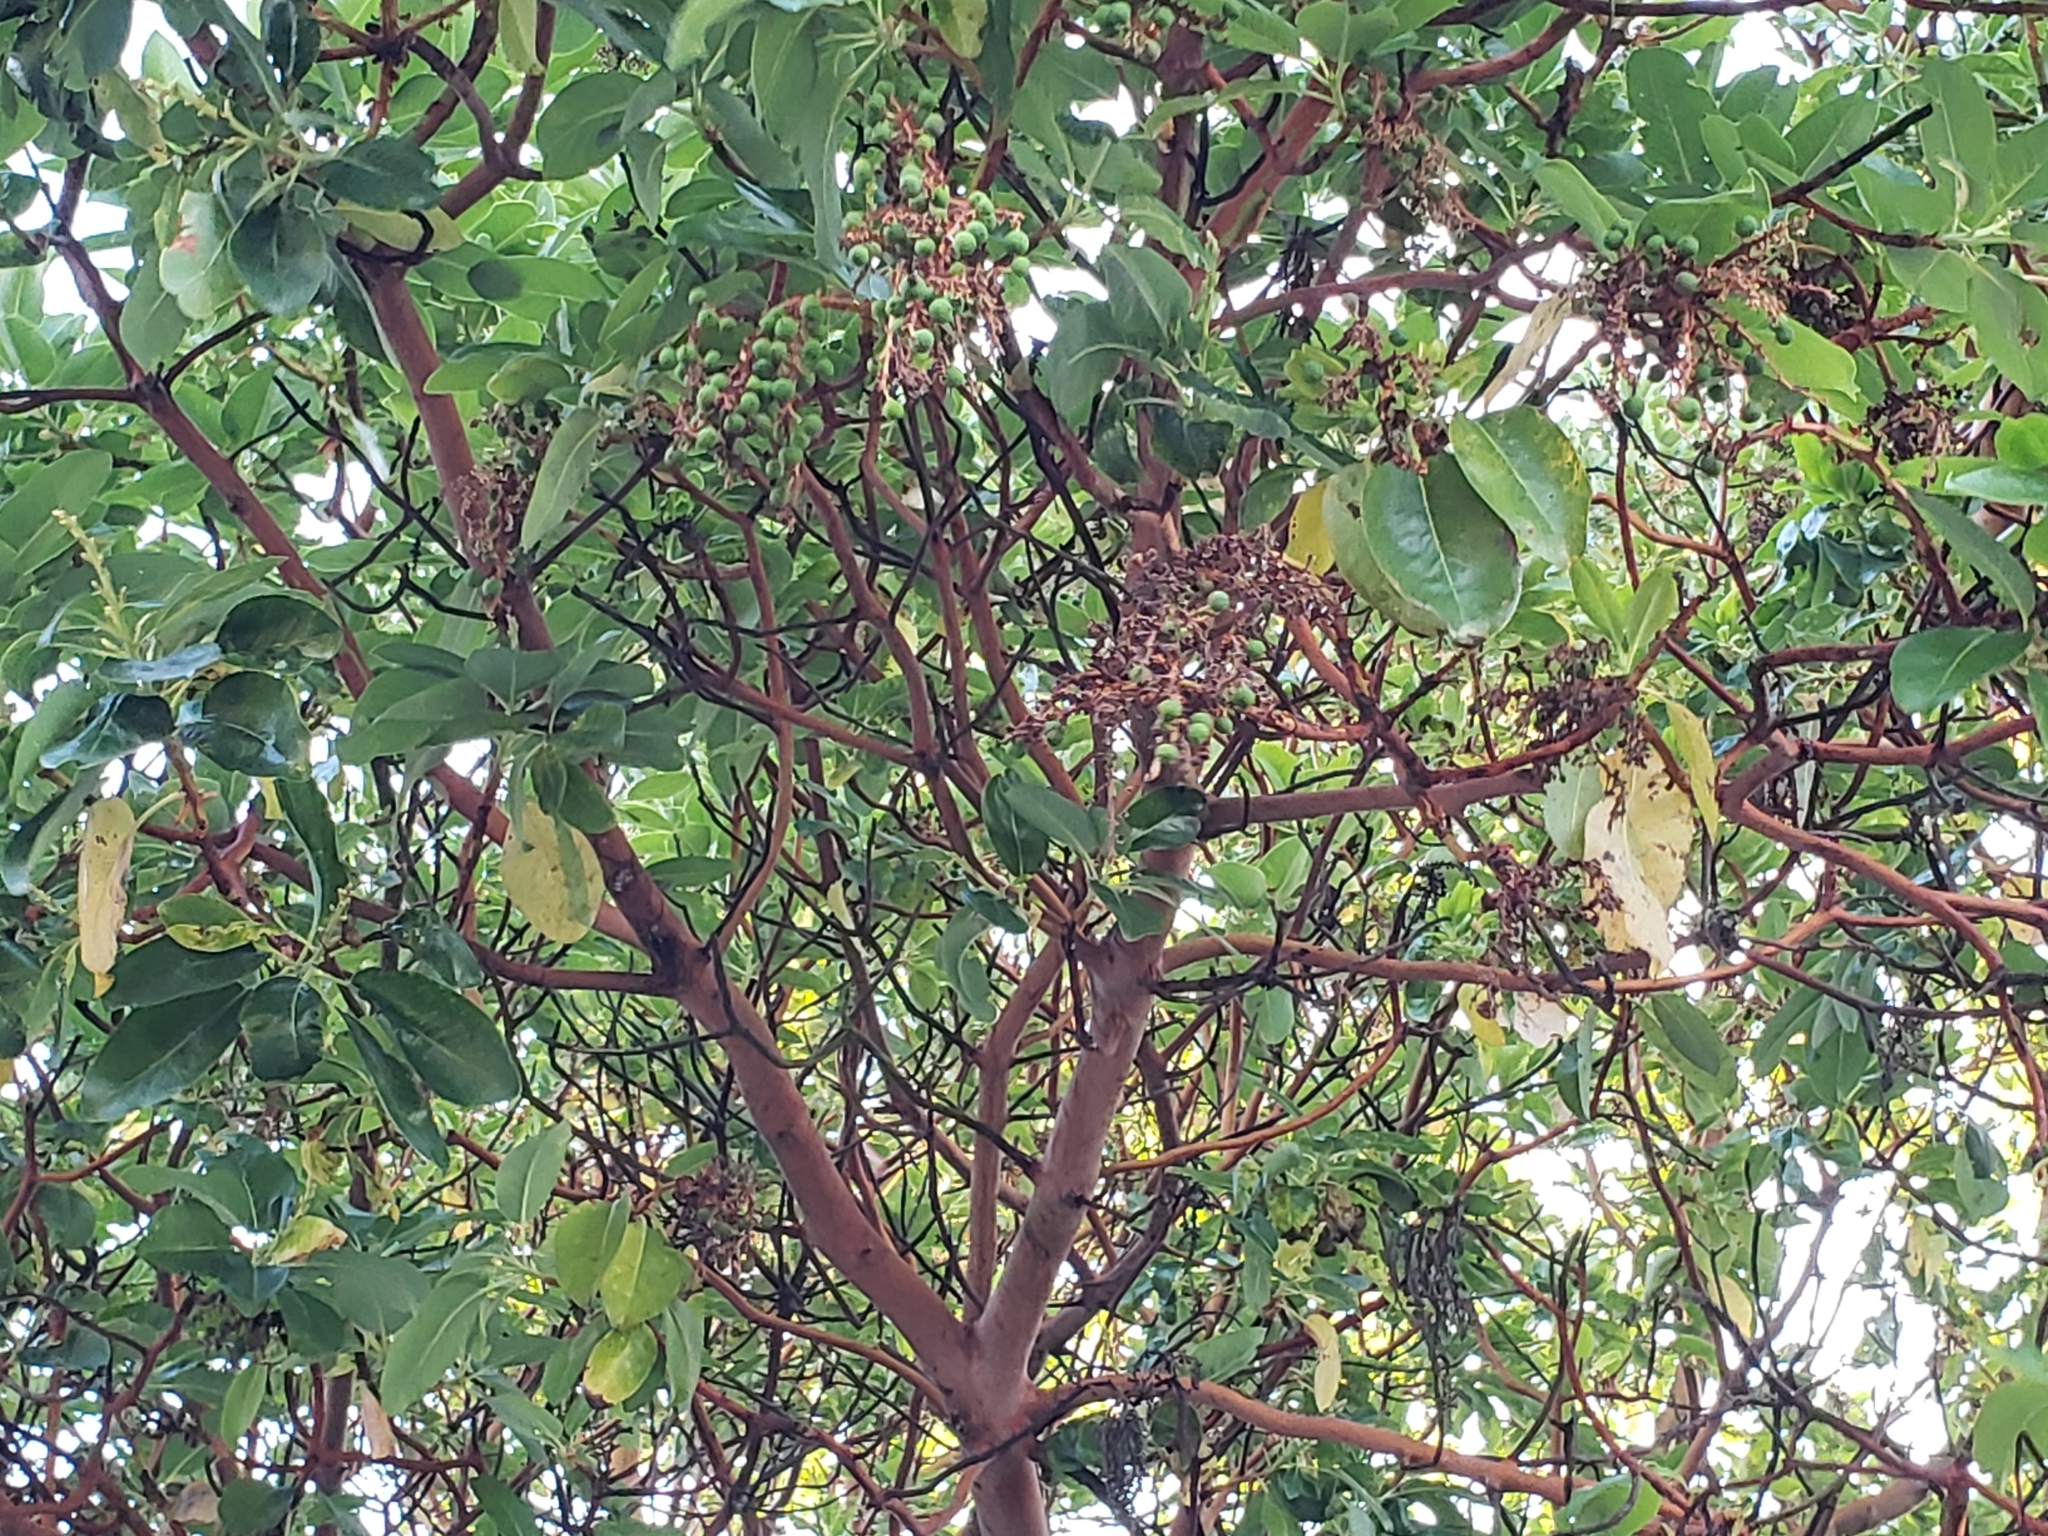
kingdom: Plantae
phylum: Tracheophyta
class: Magnoliopsida
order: Ericales
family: Ericaceae
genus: Arbutus
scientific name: Arbutus menziesii
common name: Pacific madrone
